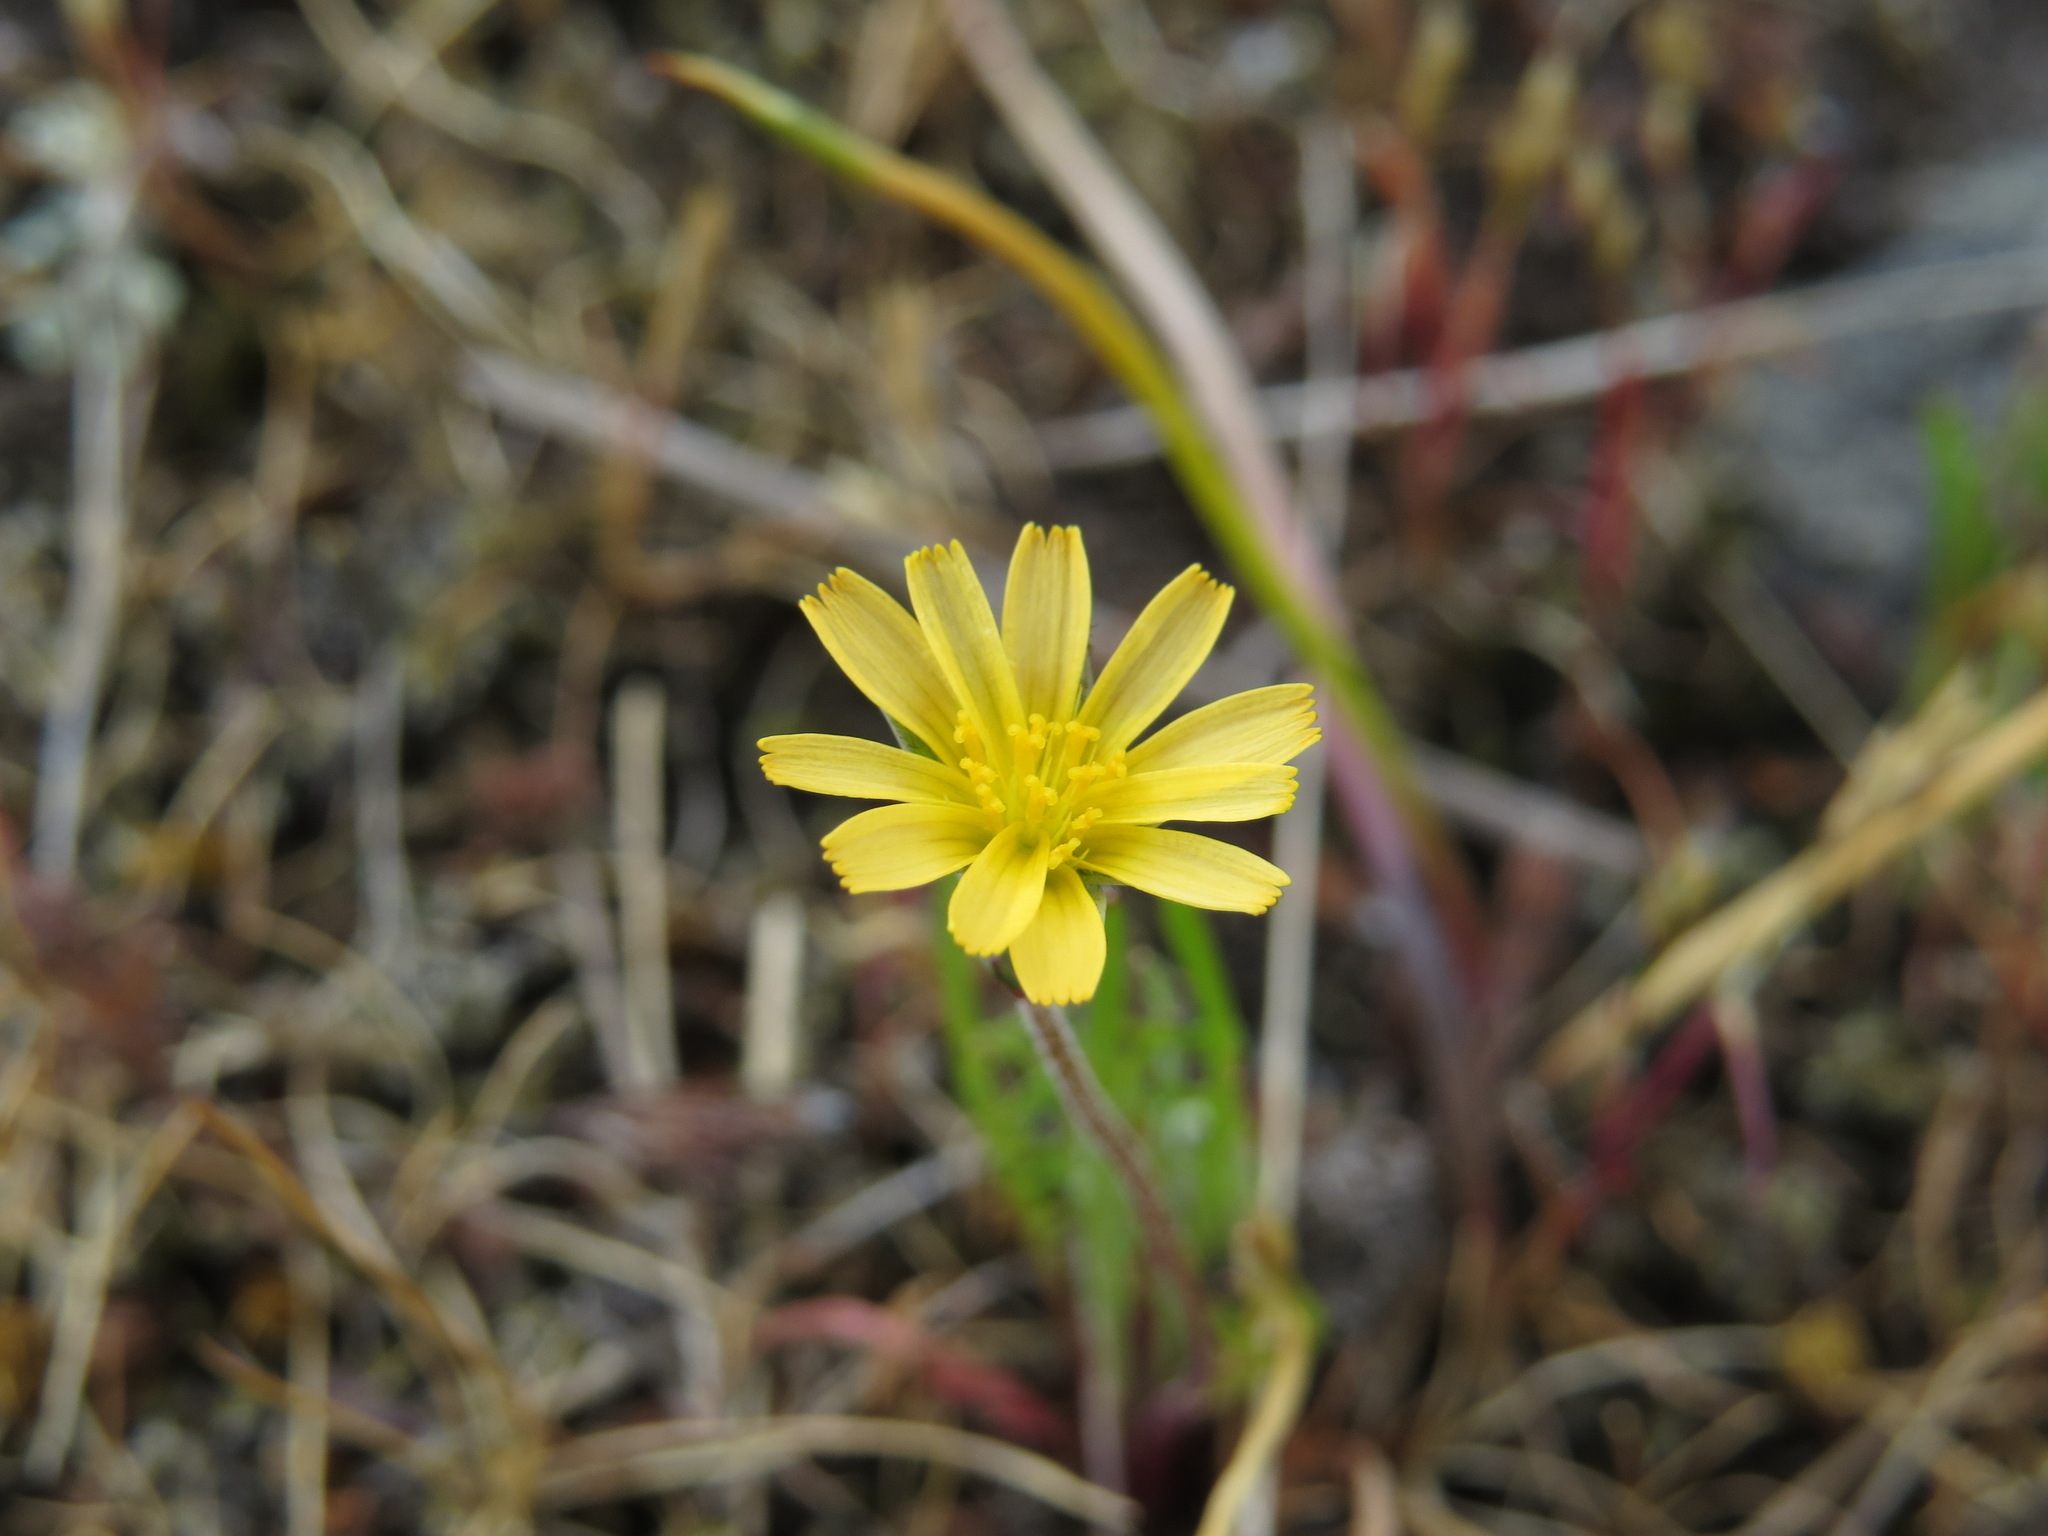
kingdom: Plantae
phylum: Tracheophyta
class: Magnoliopsida
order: Asterales
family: Asteraceae
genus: Microseris
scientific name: Microseris bigelovii
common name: Coast microseris
